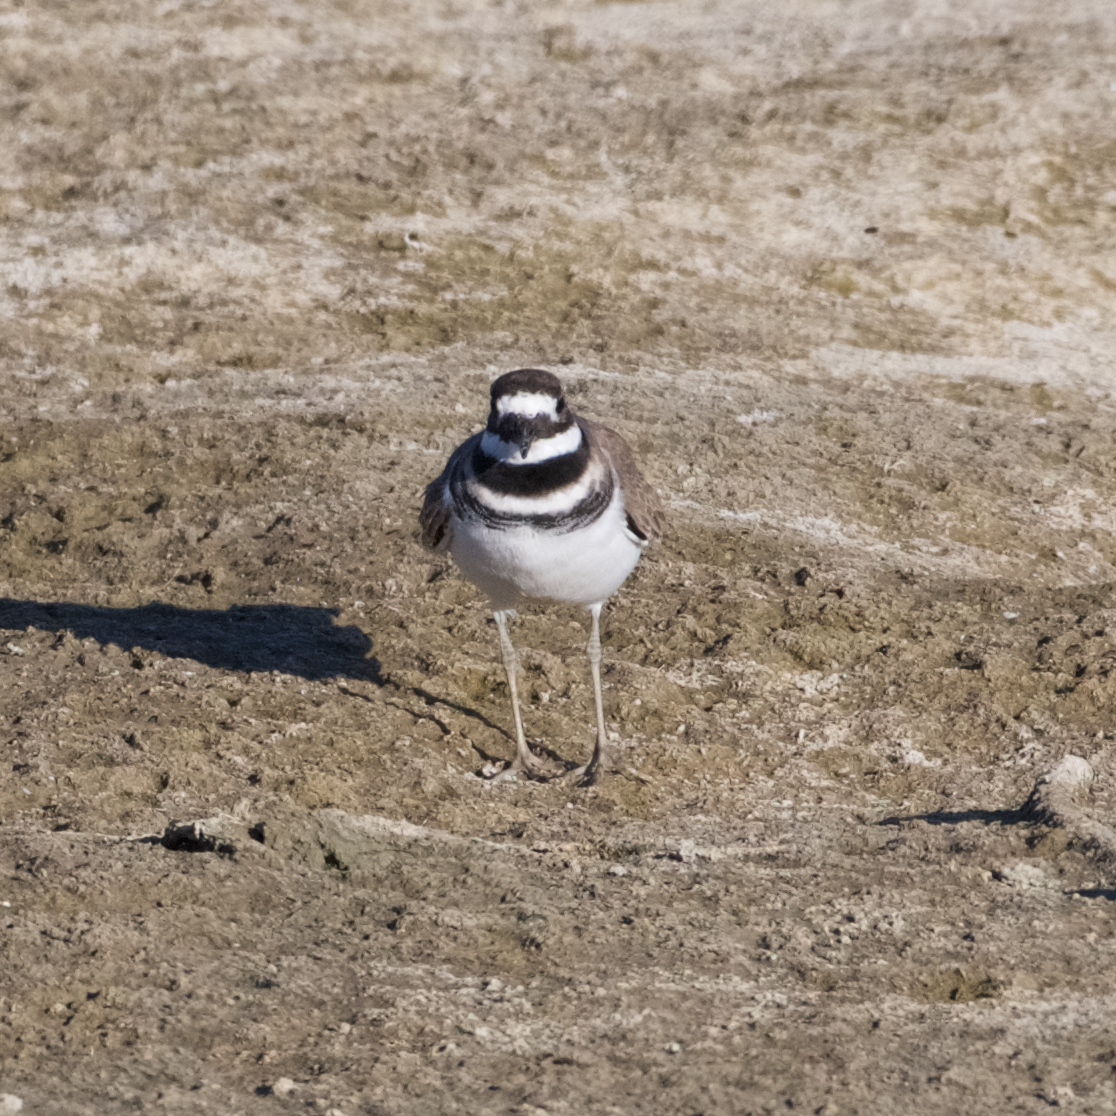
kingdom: Animalia
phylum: Chordata
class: Aves
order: Charadriiformes
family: Charadriidae
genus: Charadrius
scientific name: Charadrius vociferus
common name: Killdeer
